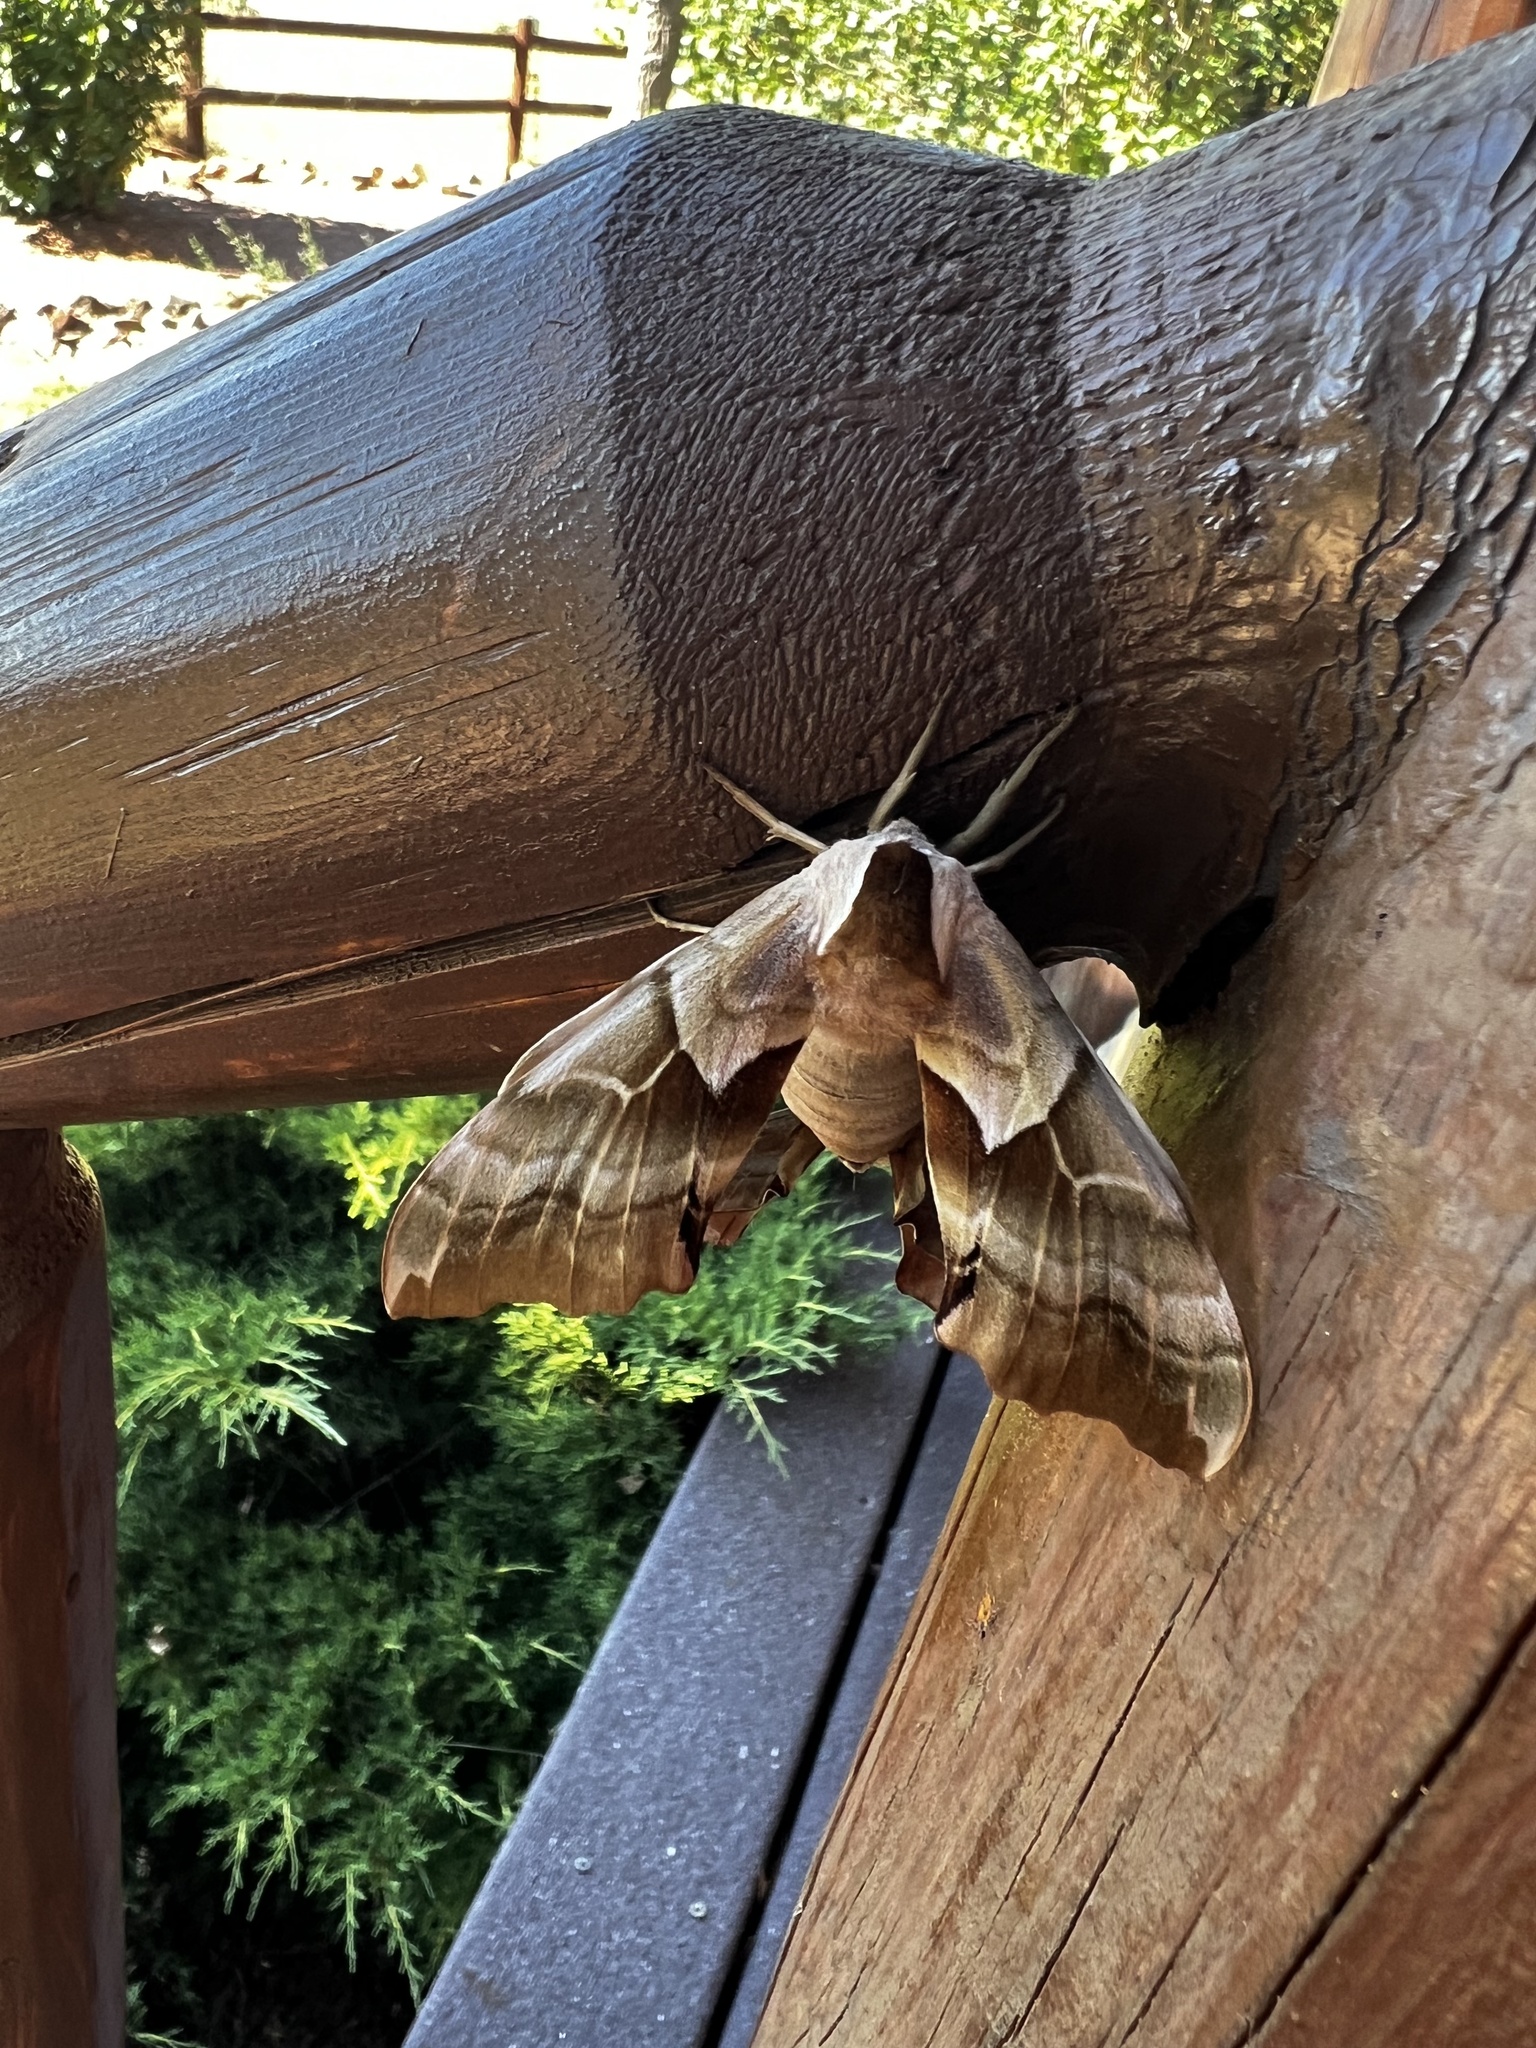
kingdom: Animalia
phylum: Arthropoda
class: Insecta
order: Lepidoptera
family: Sphingidae
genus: Smerinthus
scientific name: Smerinthus cerisyi
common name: Cerisy's sphinx moth
